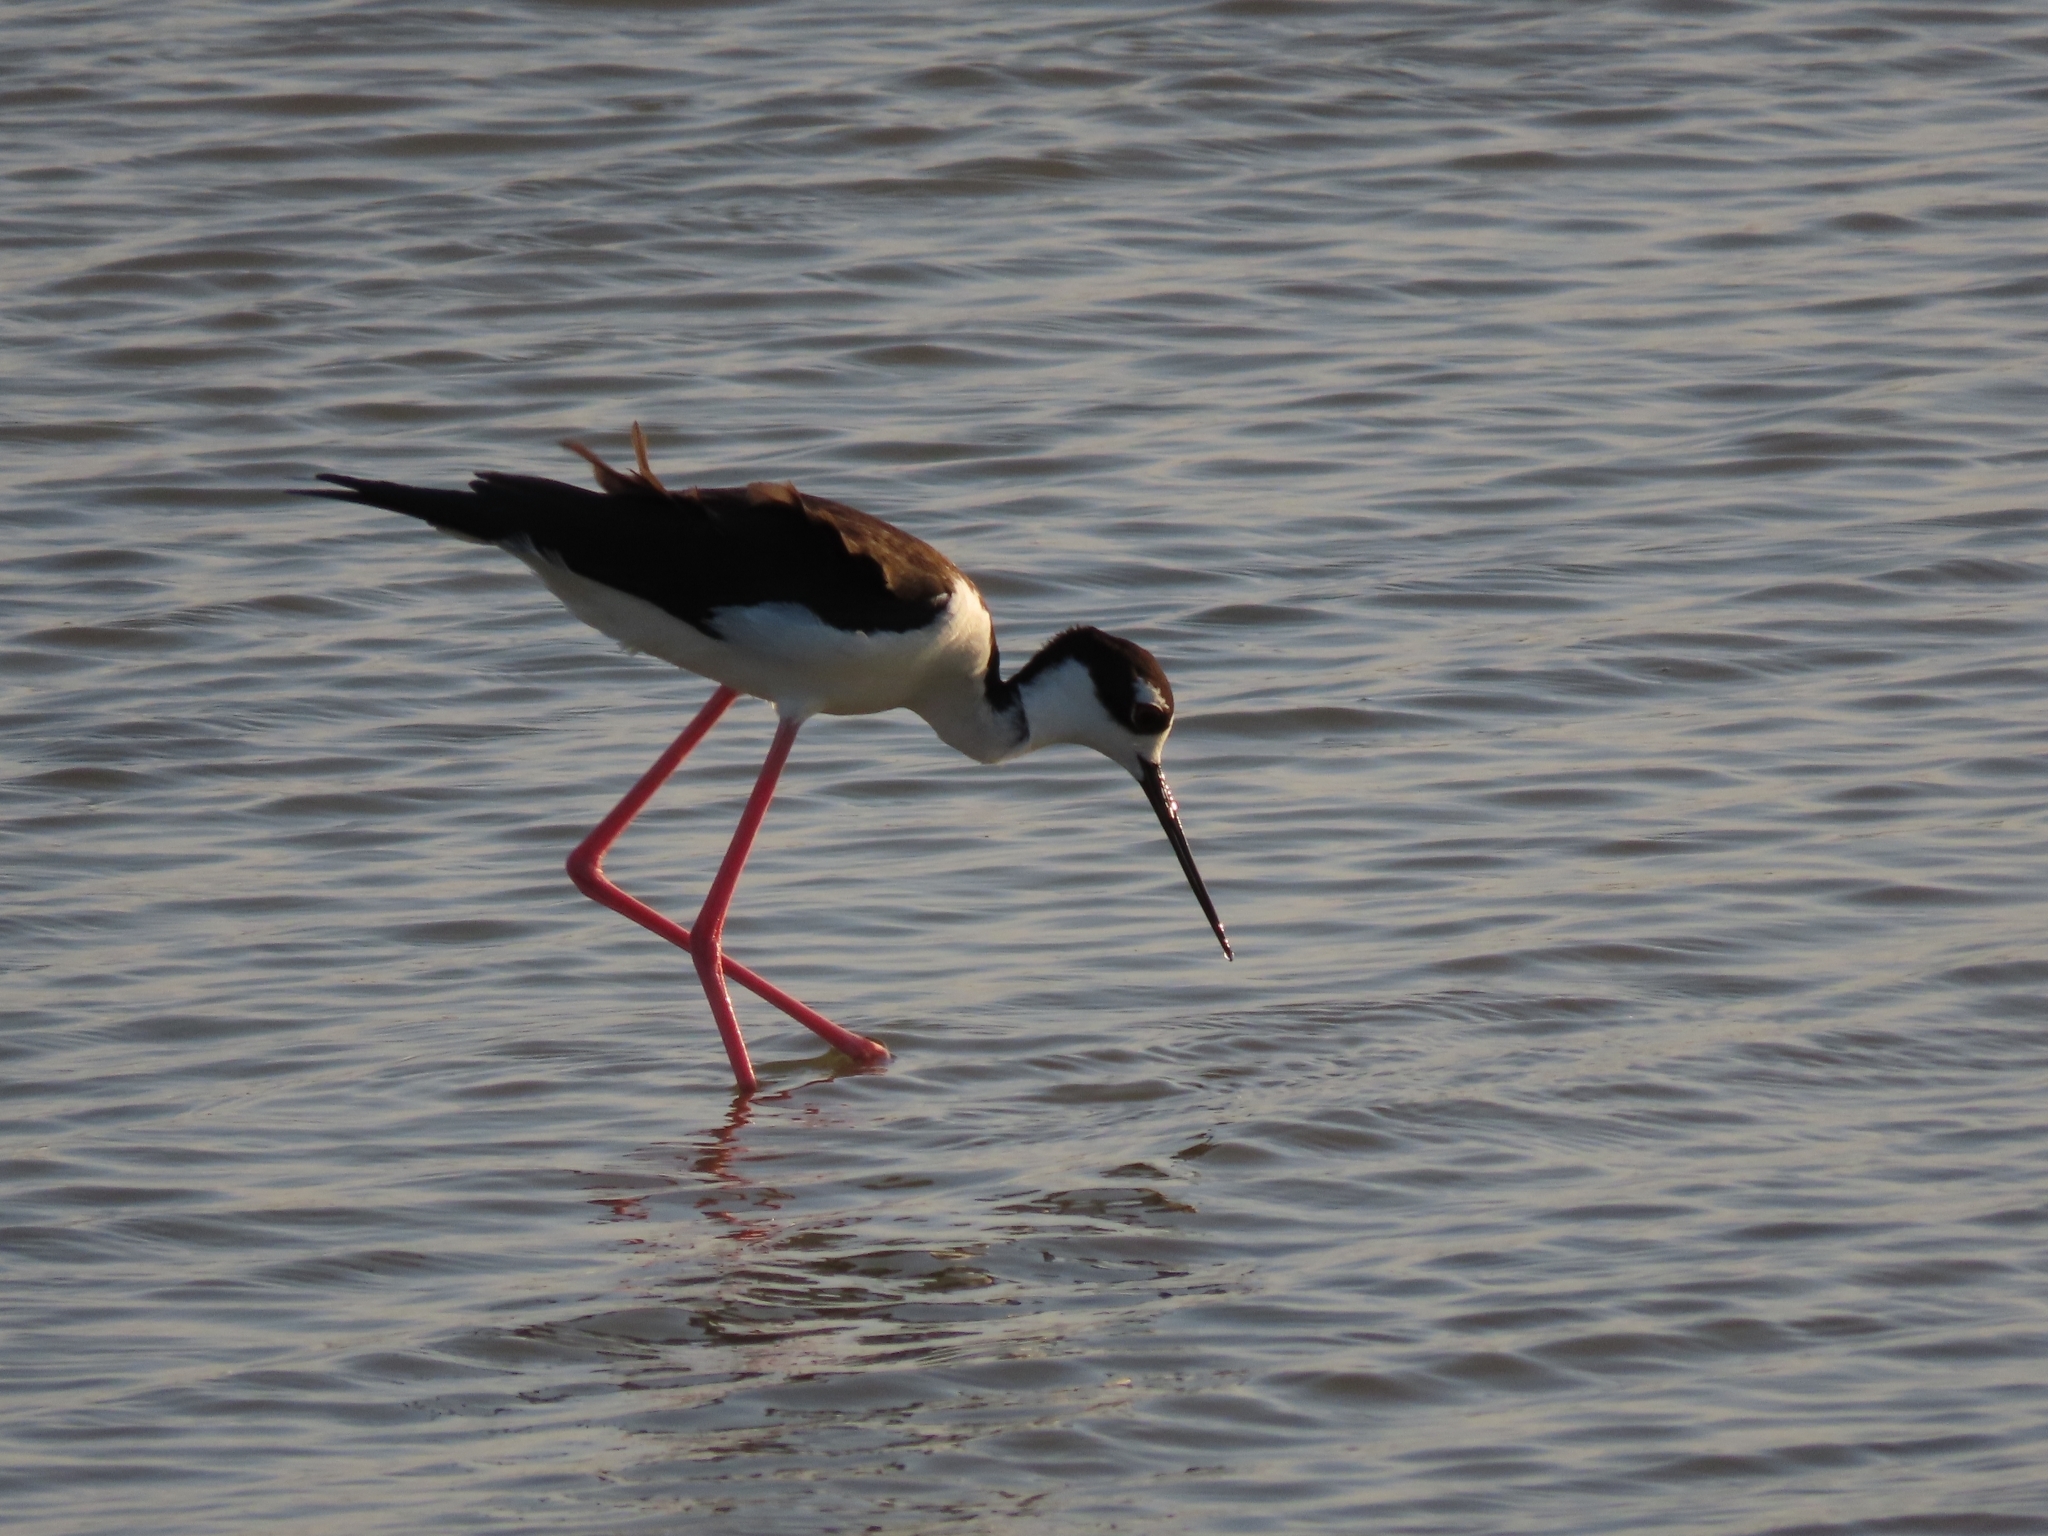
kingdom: Animalia
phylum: Chordata
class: Aves
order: Charadriiformes
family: Recurvirostridae
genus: Himantopus
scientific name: Himantopus mexicanus
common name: Black-necked stilt
